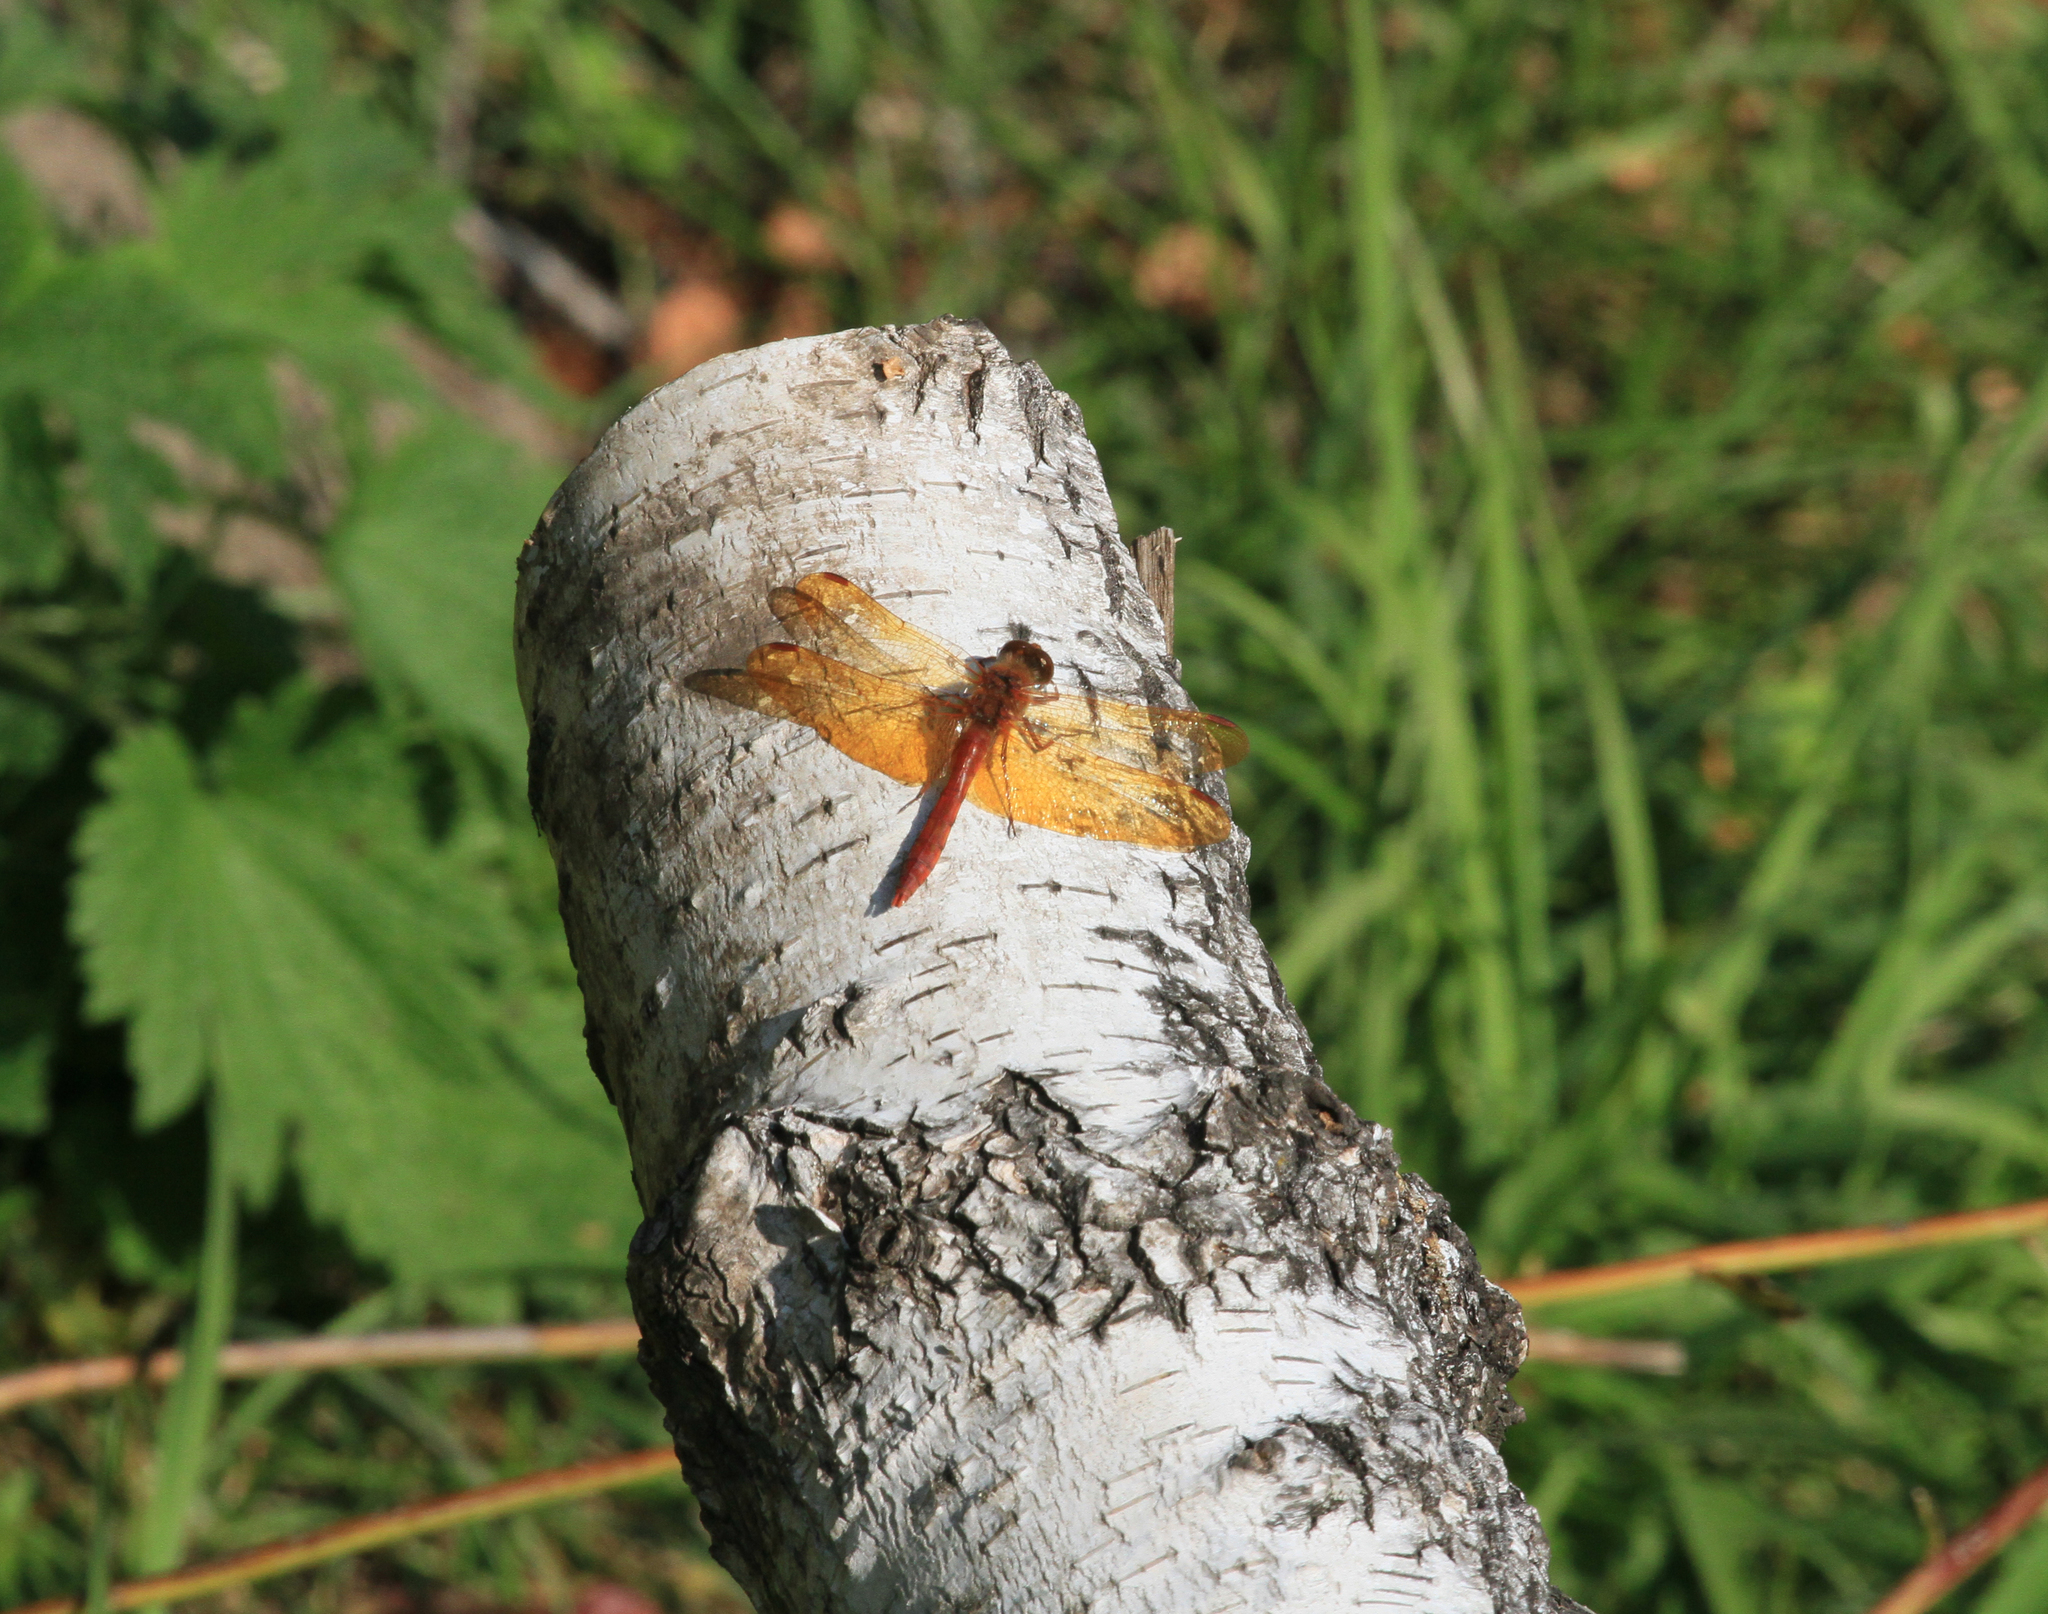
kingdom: Animalia
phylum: Arthropoda
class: Insecta
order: Odonata
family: Libellulidae
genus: Sympetrum
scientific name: Sympetrum croceolum
